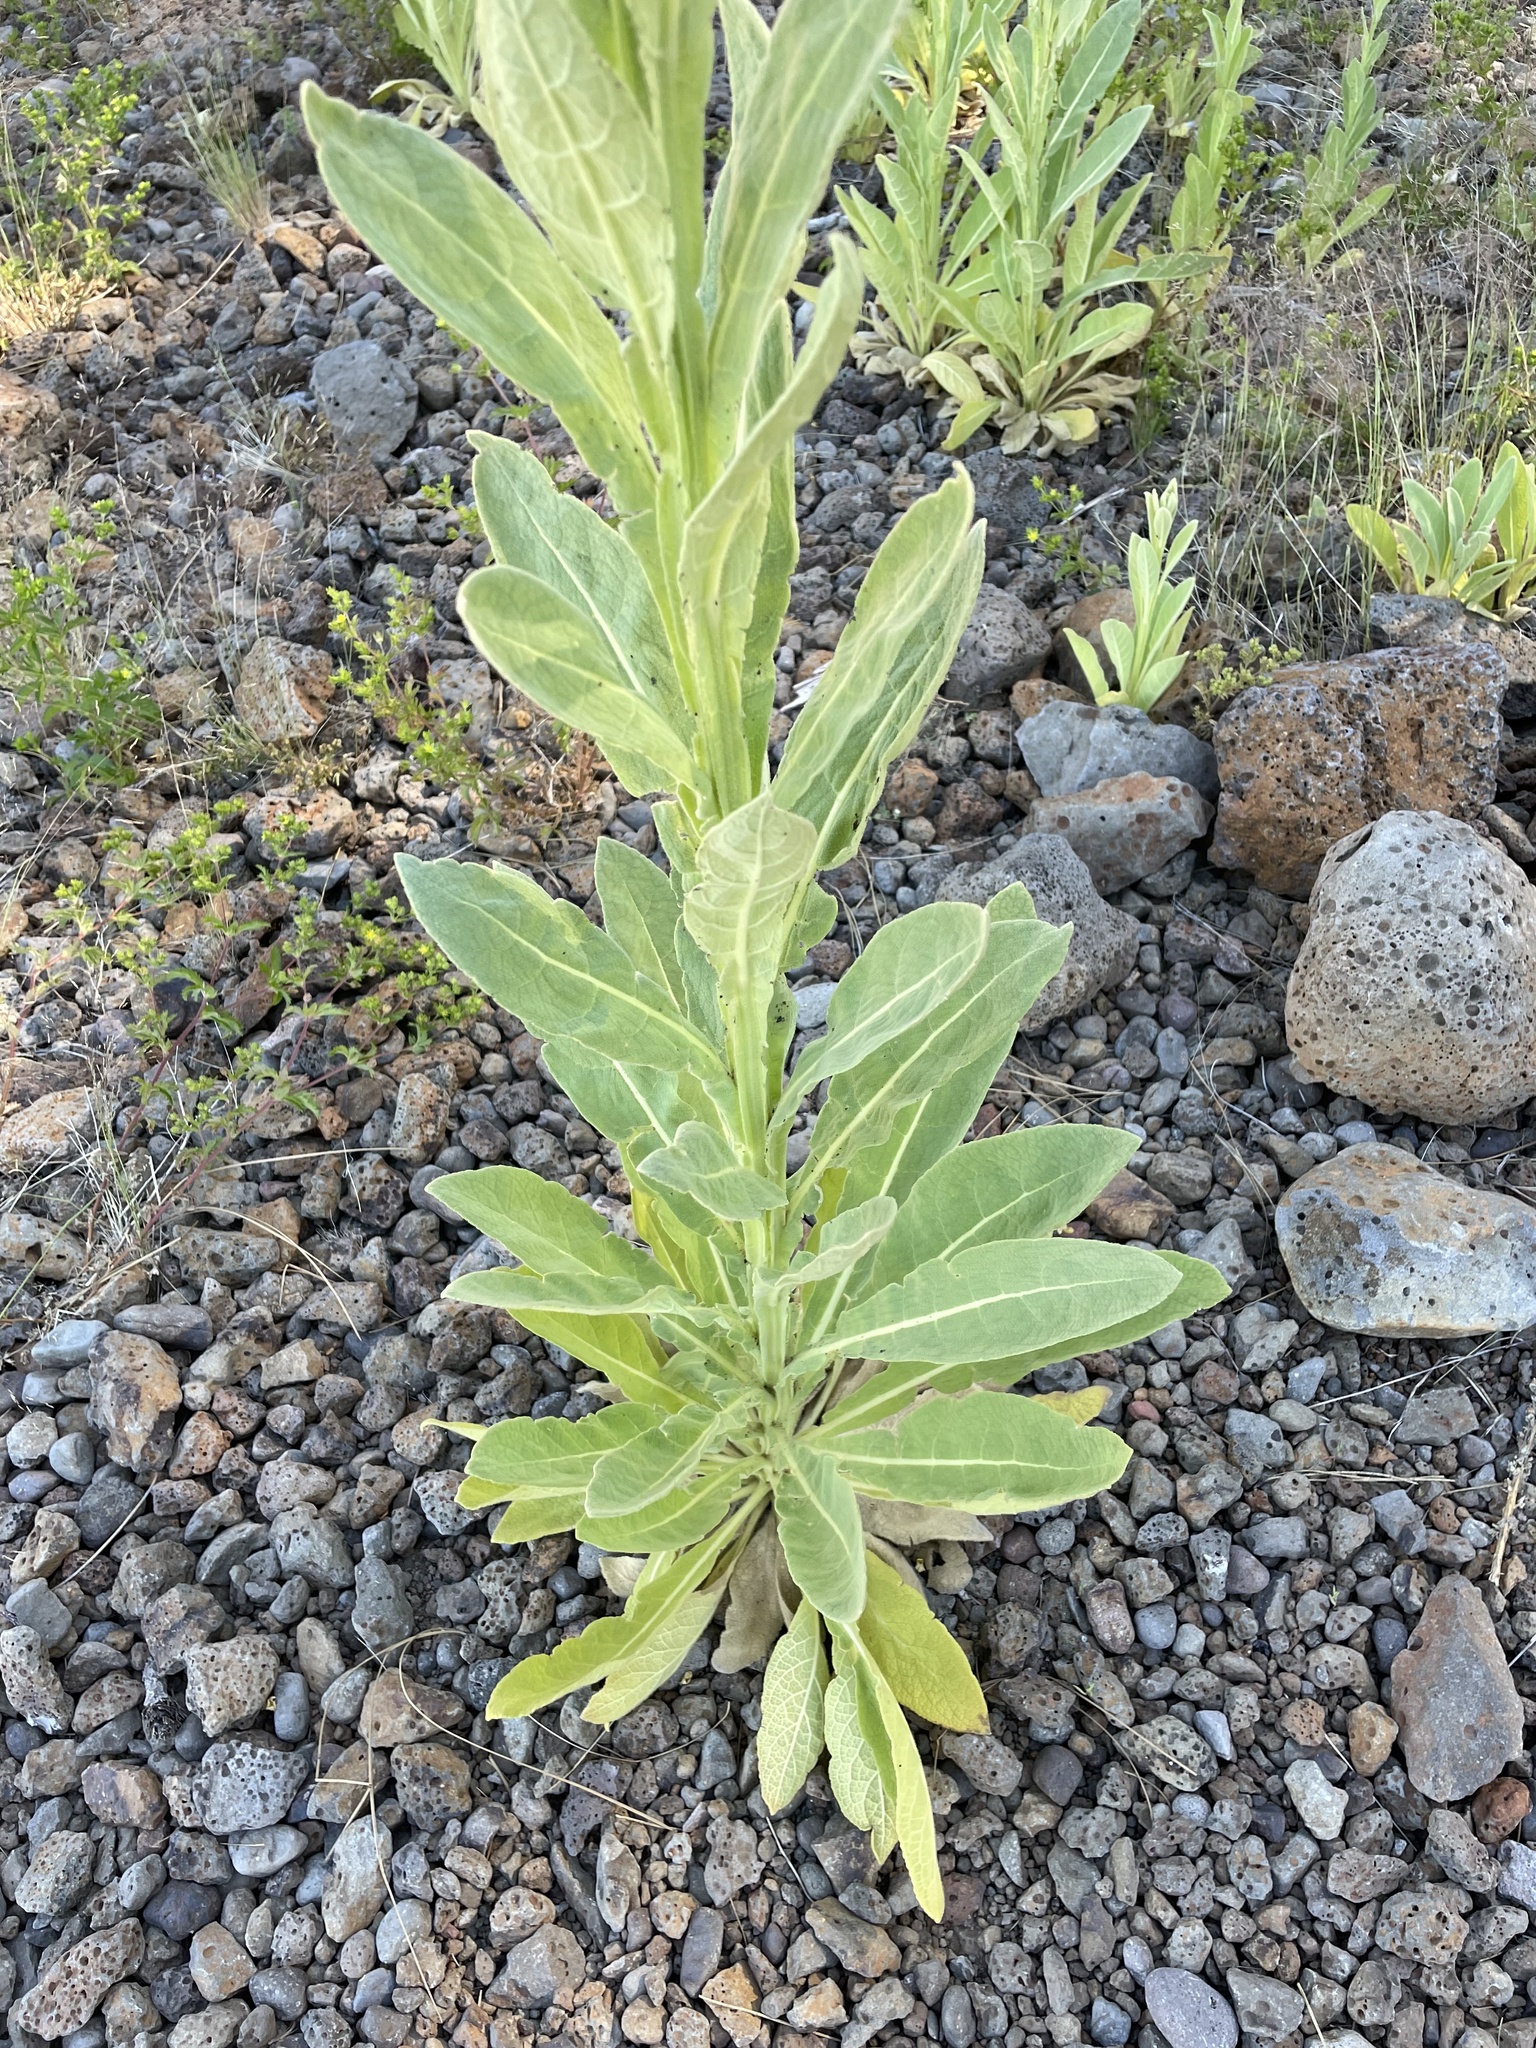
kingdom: Plantae
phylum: Tracheophyta
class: Magnoliopsida
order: Lamiales
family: Scrophulariaceae
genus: Verbascum
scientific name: Verbascum thapsus
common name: Common mullein
